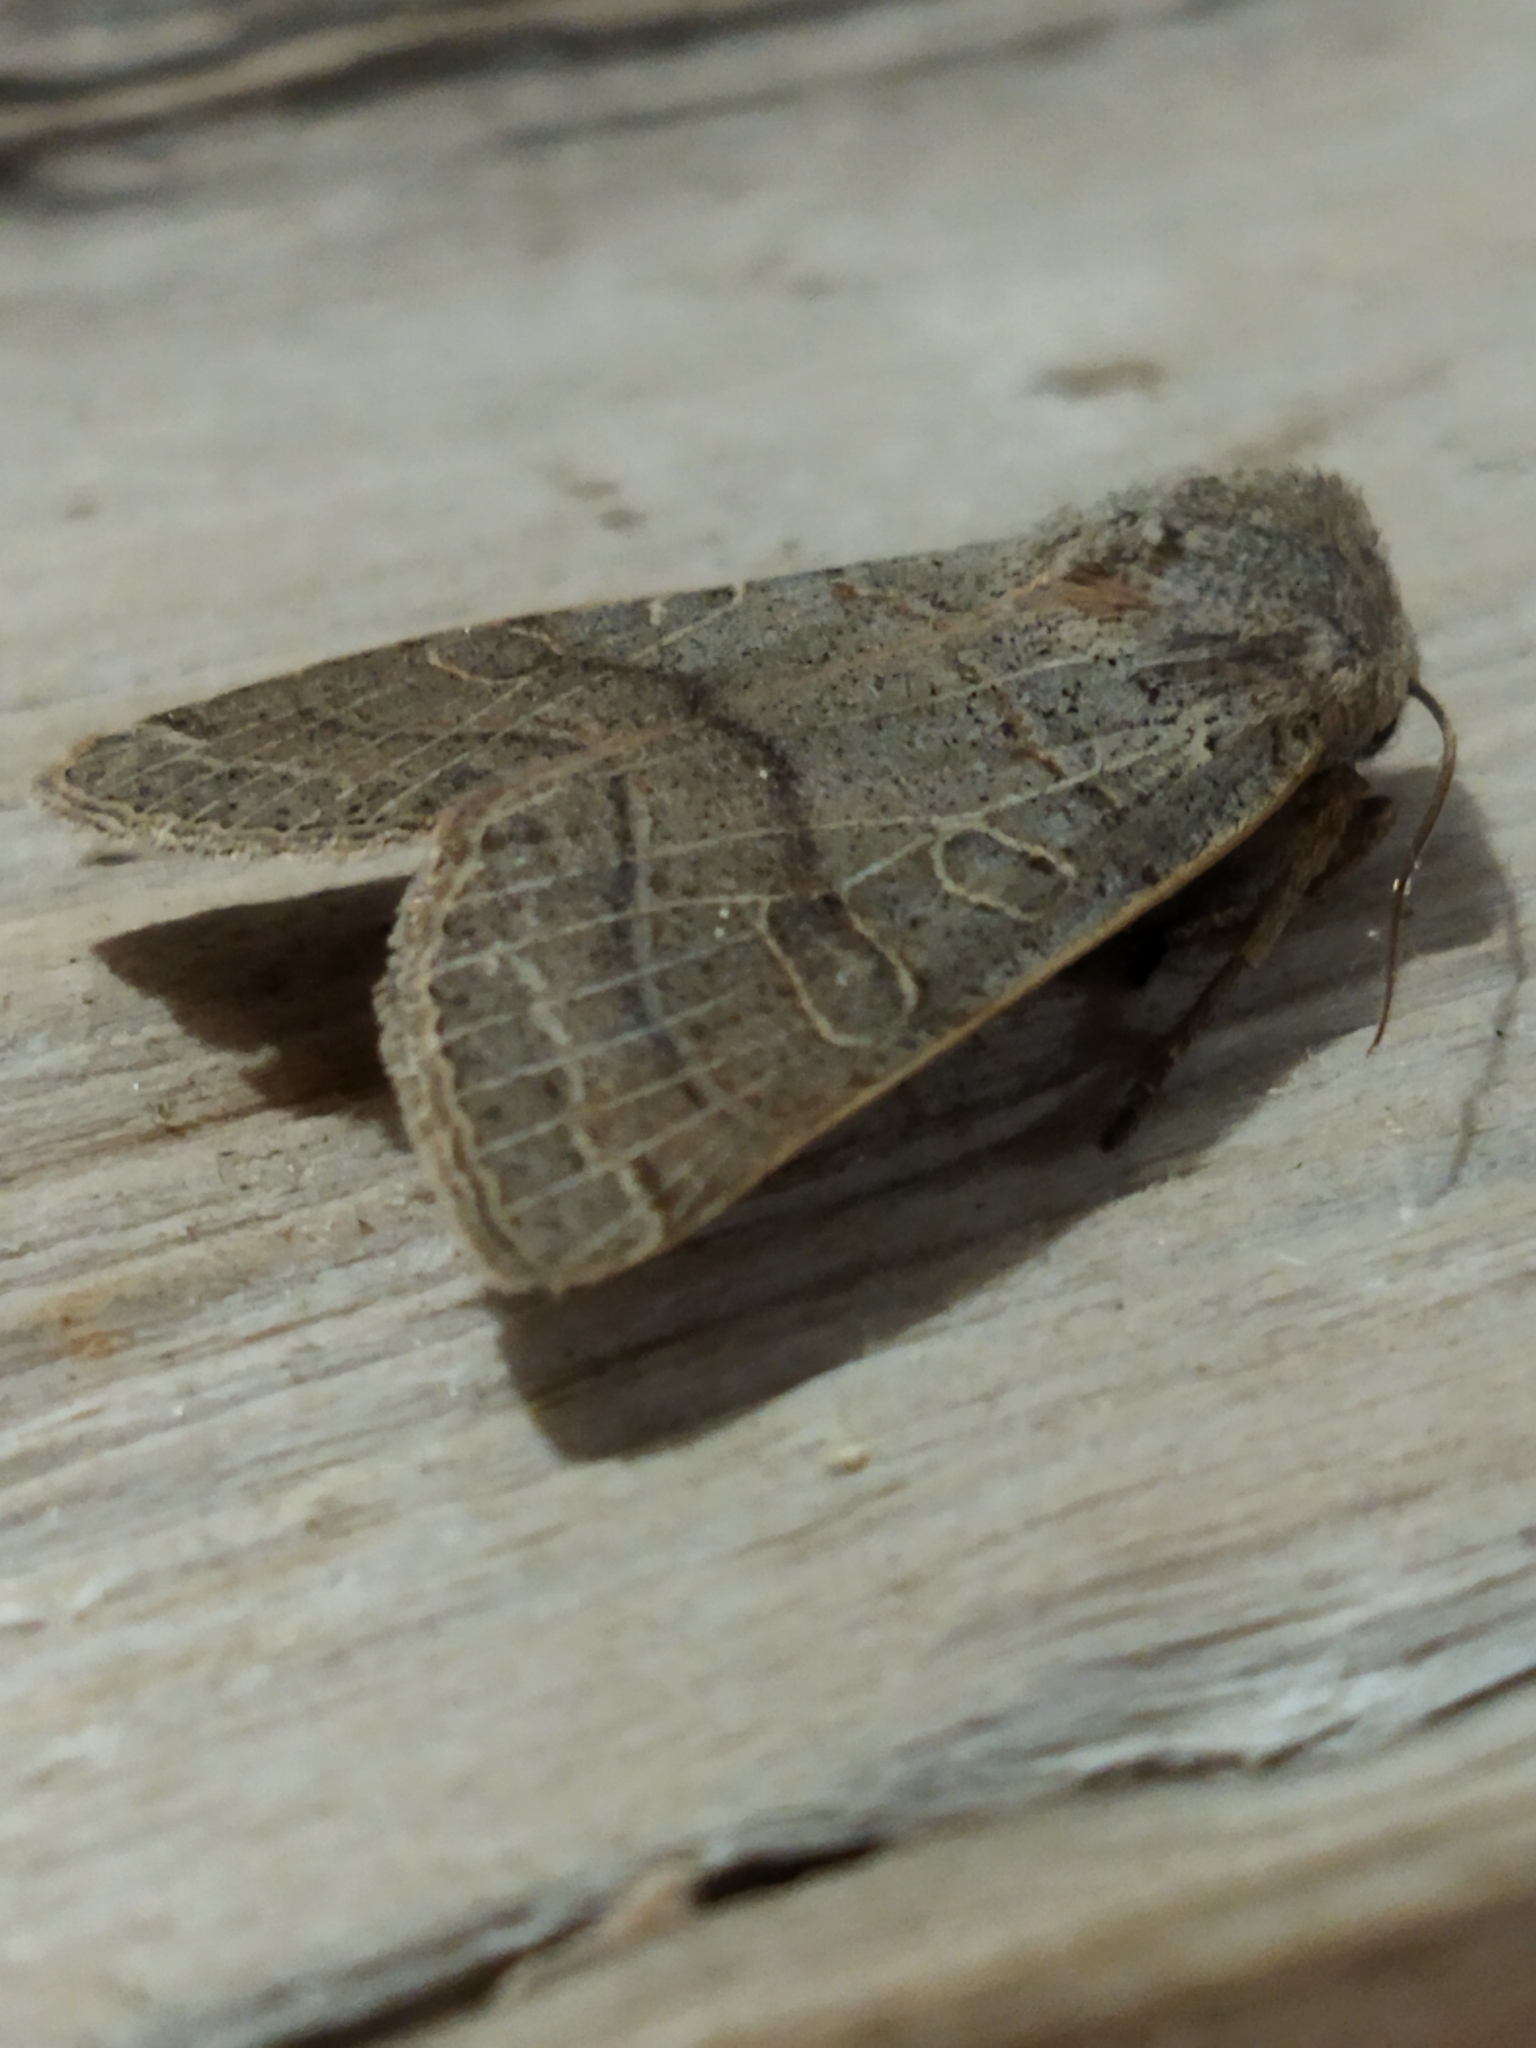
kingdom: Animalia
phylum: Arthropoda
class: Insecta
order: Lepidoptera
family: Noctuidae
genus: Agrochola
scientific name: Agrochola humilis
